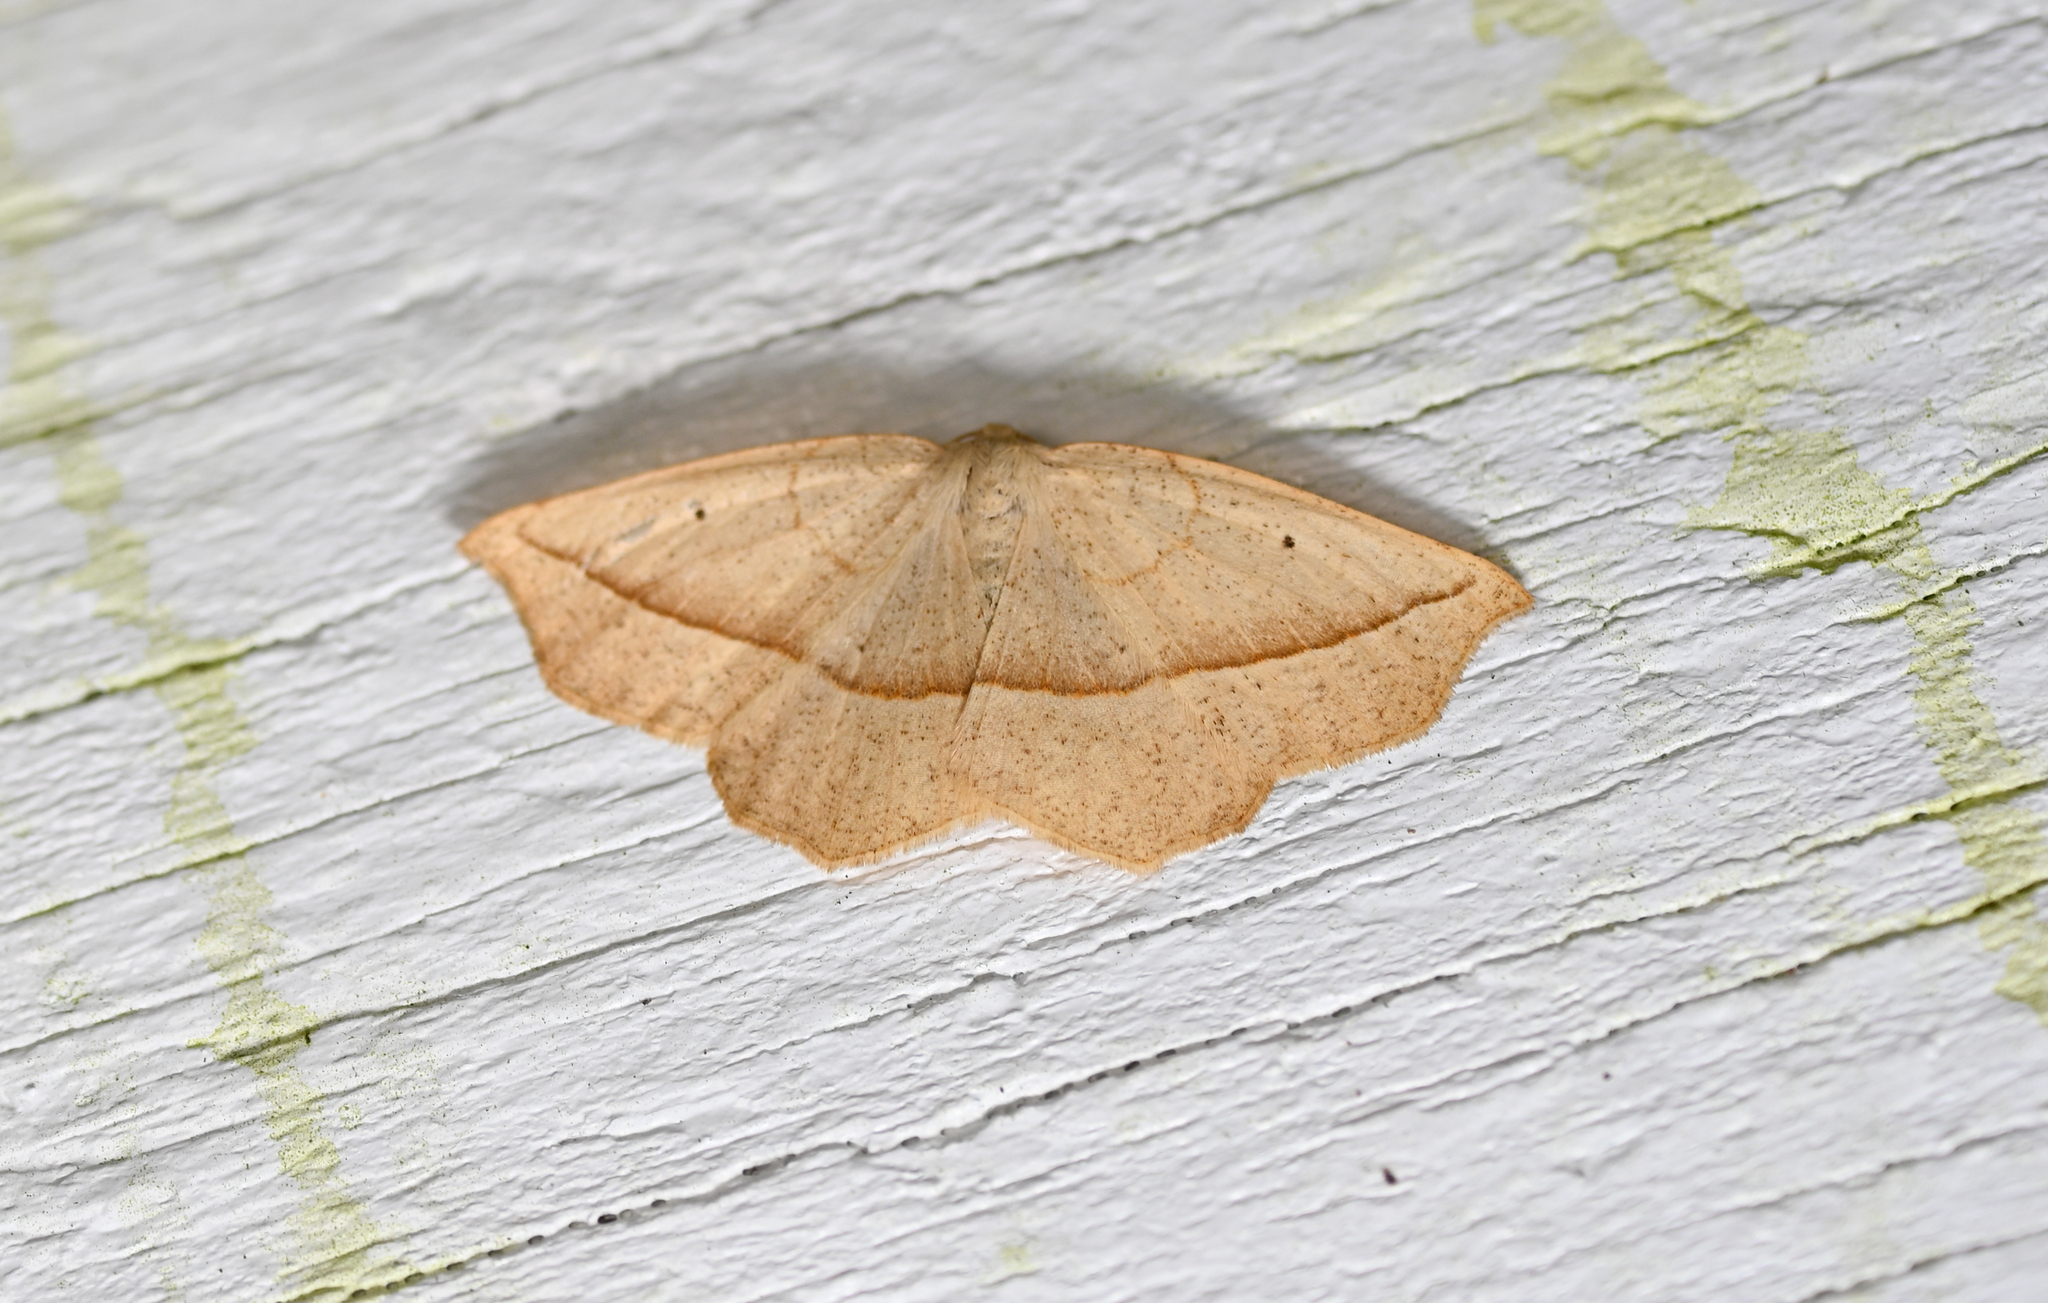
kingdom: Animalia
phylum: Arthropoda
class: Insecta
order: Lepidoptera
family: Geometridae
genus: Eusarca
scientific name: Eusarca confusaria
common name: Confused eusarca
